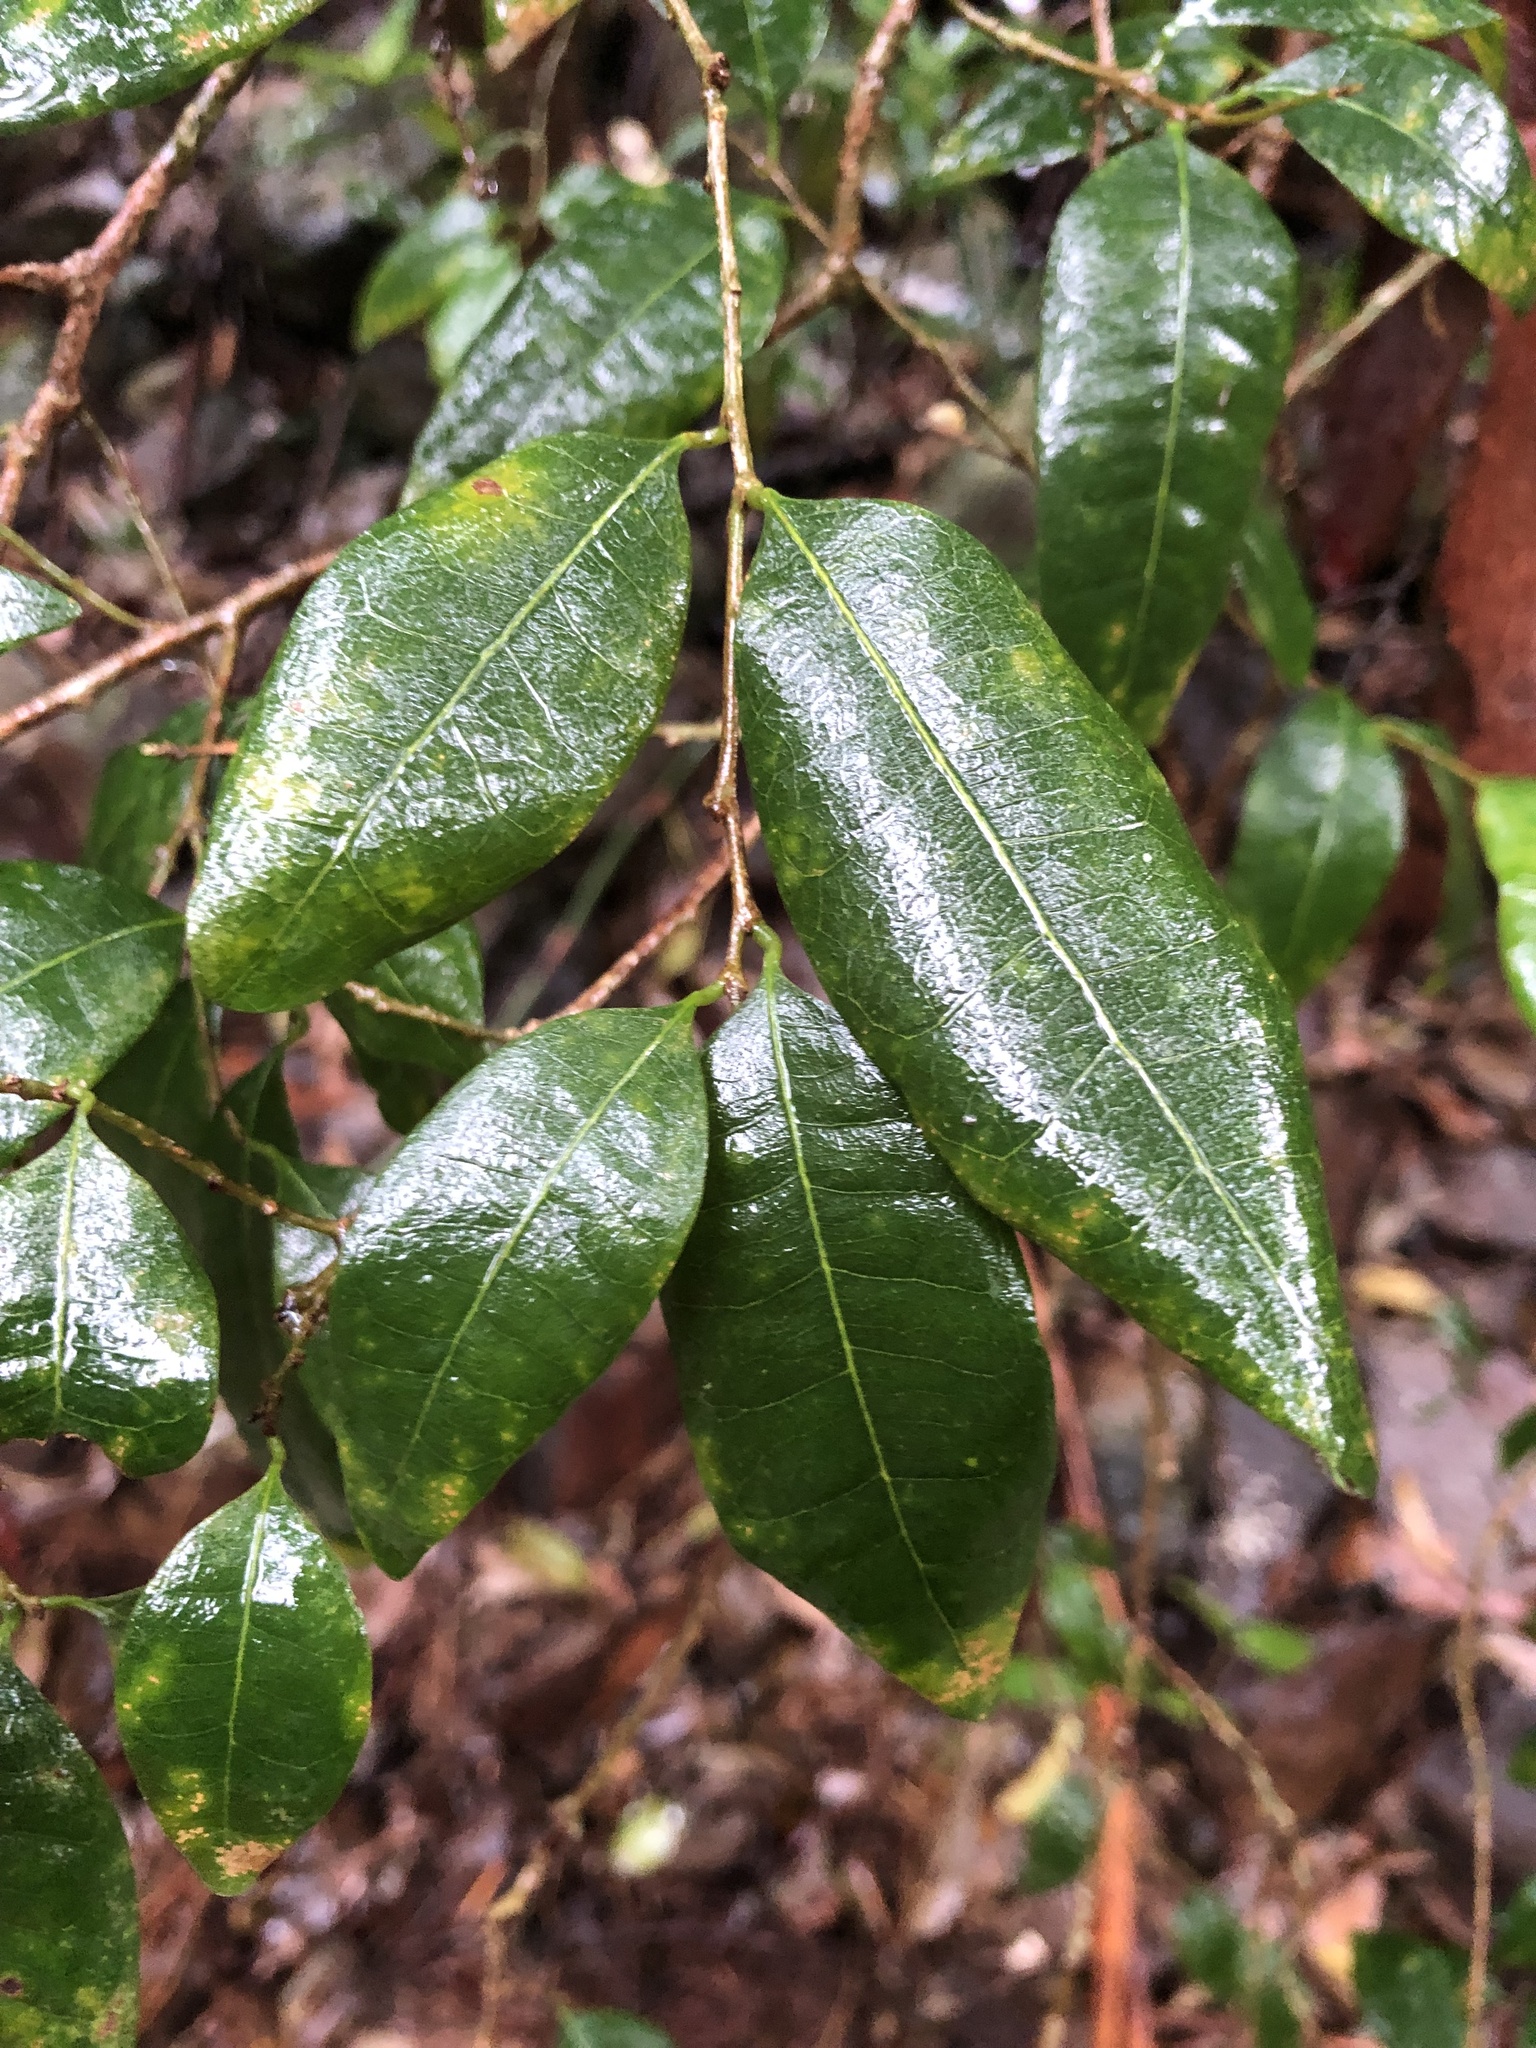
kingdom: Plantae
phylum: Tracheophyta
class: Magnoliopsida
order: Malpighiales
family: Phyllanthaceae
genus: Cleistanthus
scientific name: Cleistanthus cunninghamii
